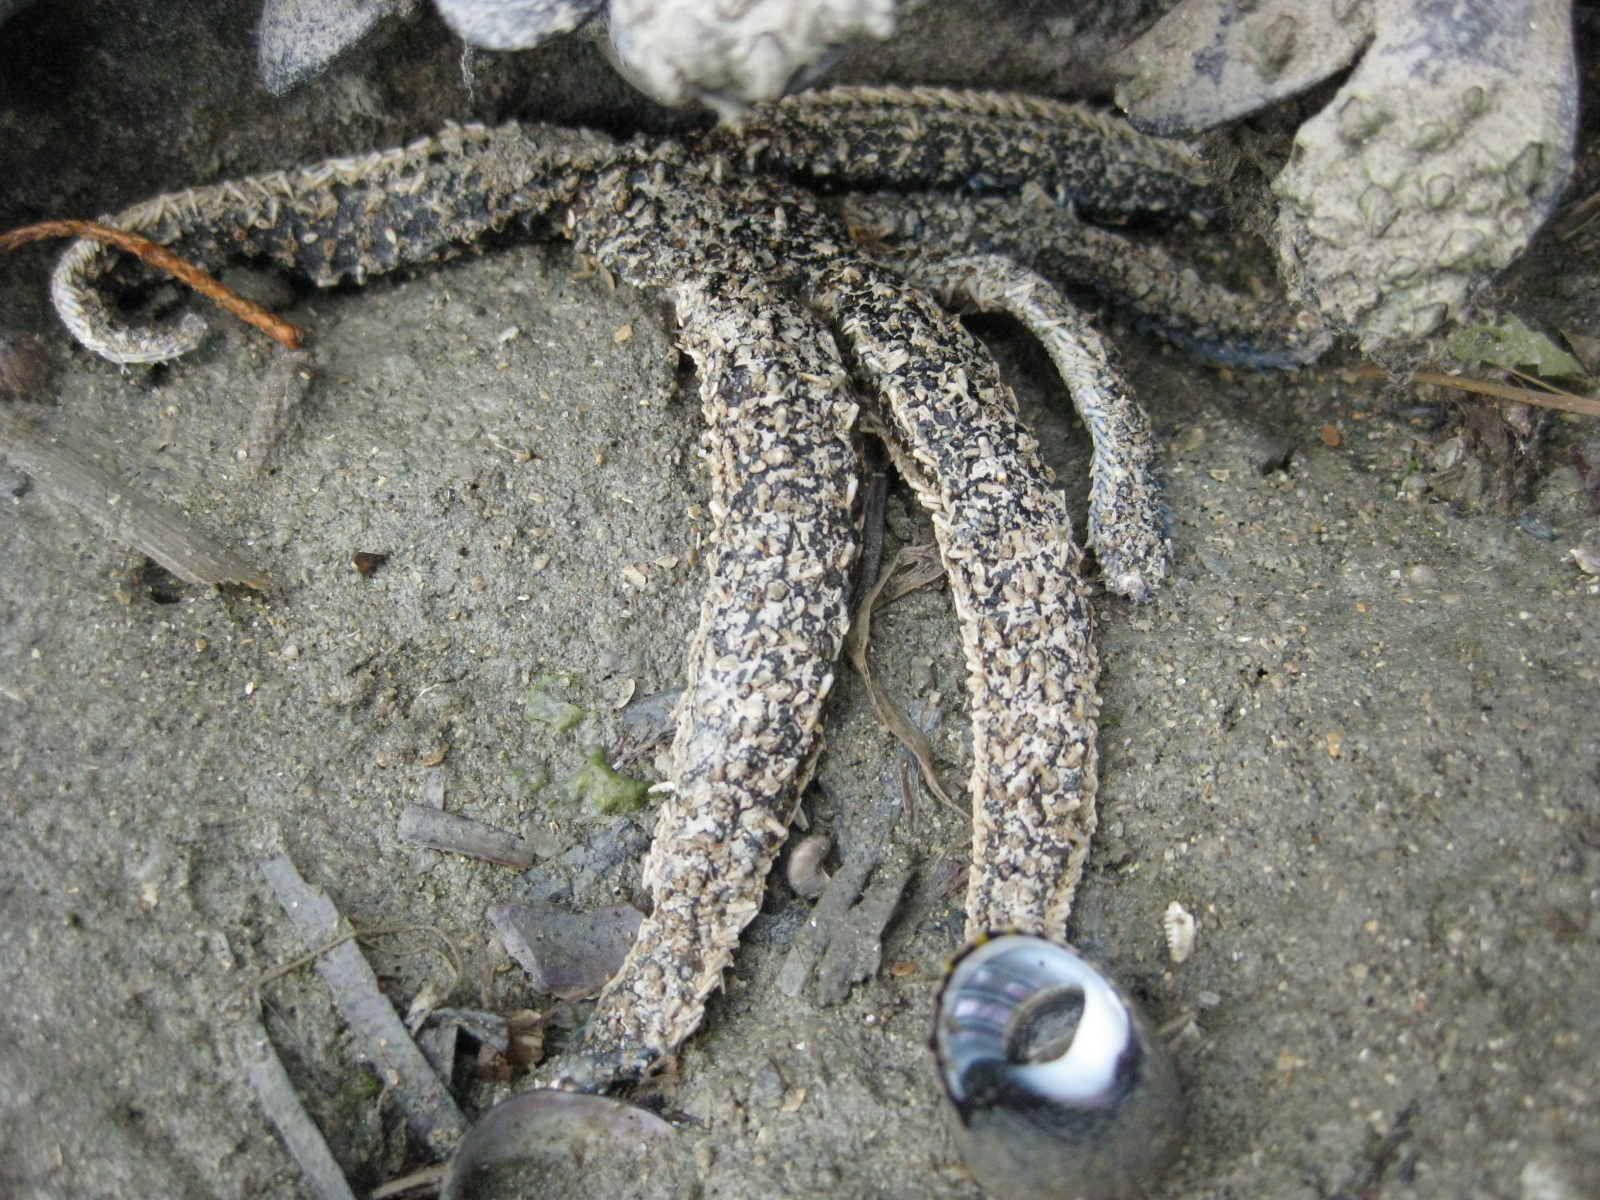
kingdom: Animalia
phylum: Echinodermata
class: Asteroidea
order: Forcipulatida
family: Asteriidae
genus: Coscinasterias
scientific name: Coscinasterias muricata
